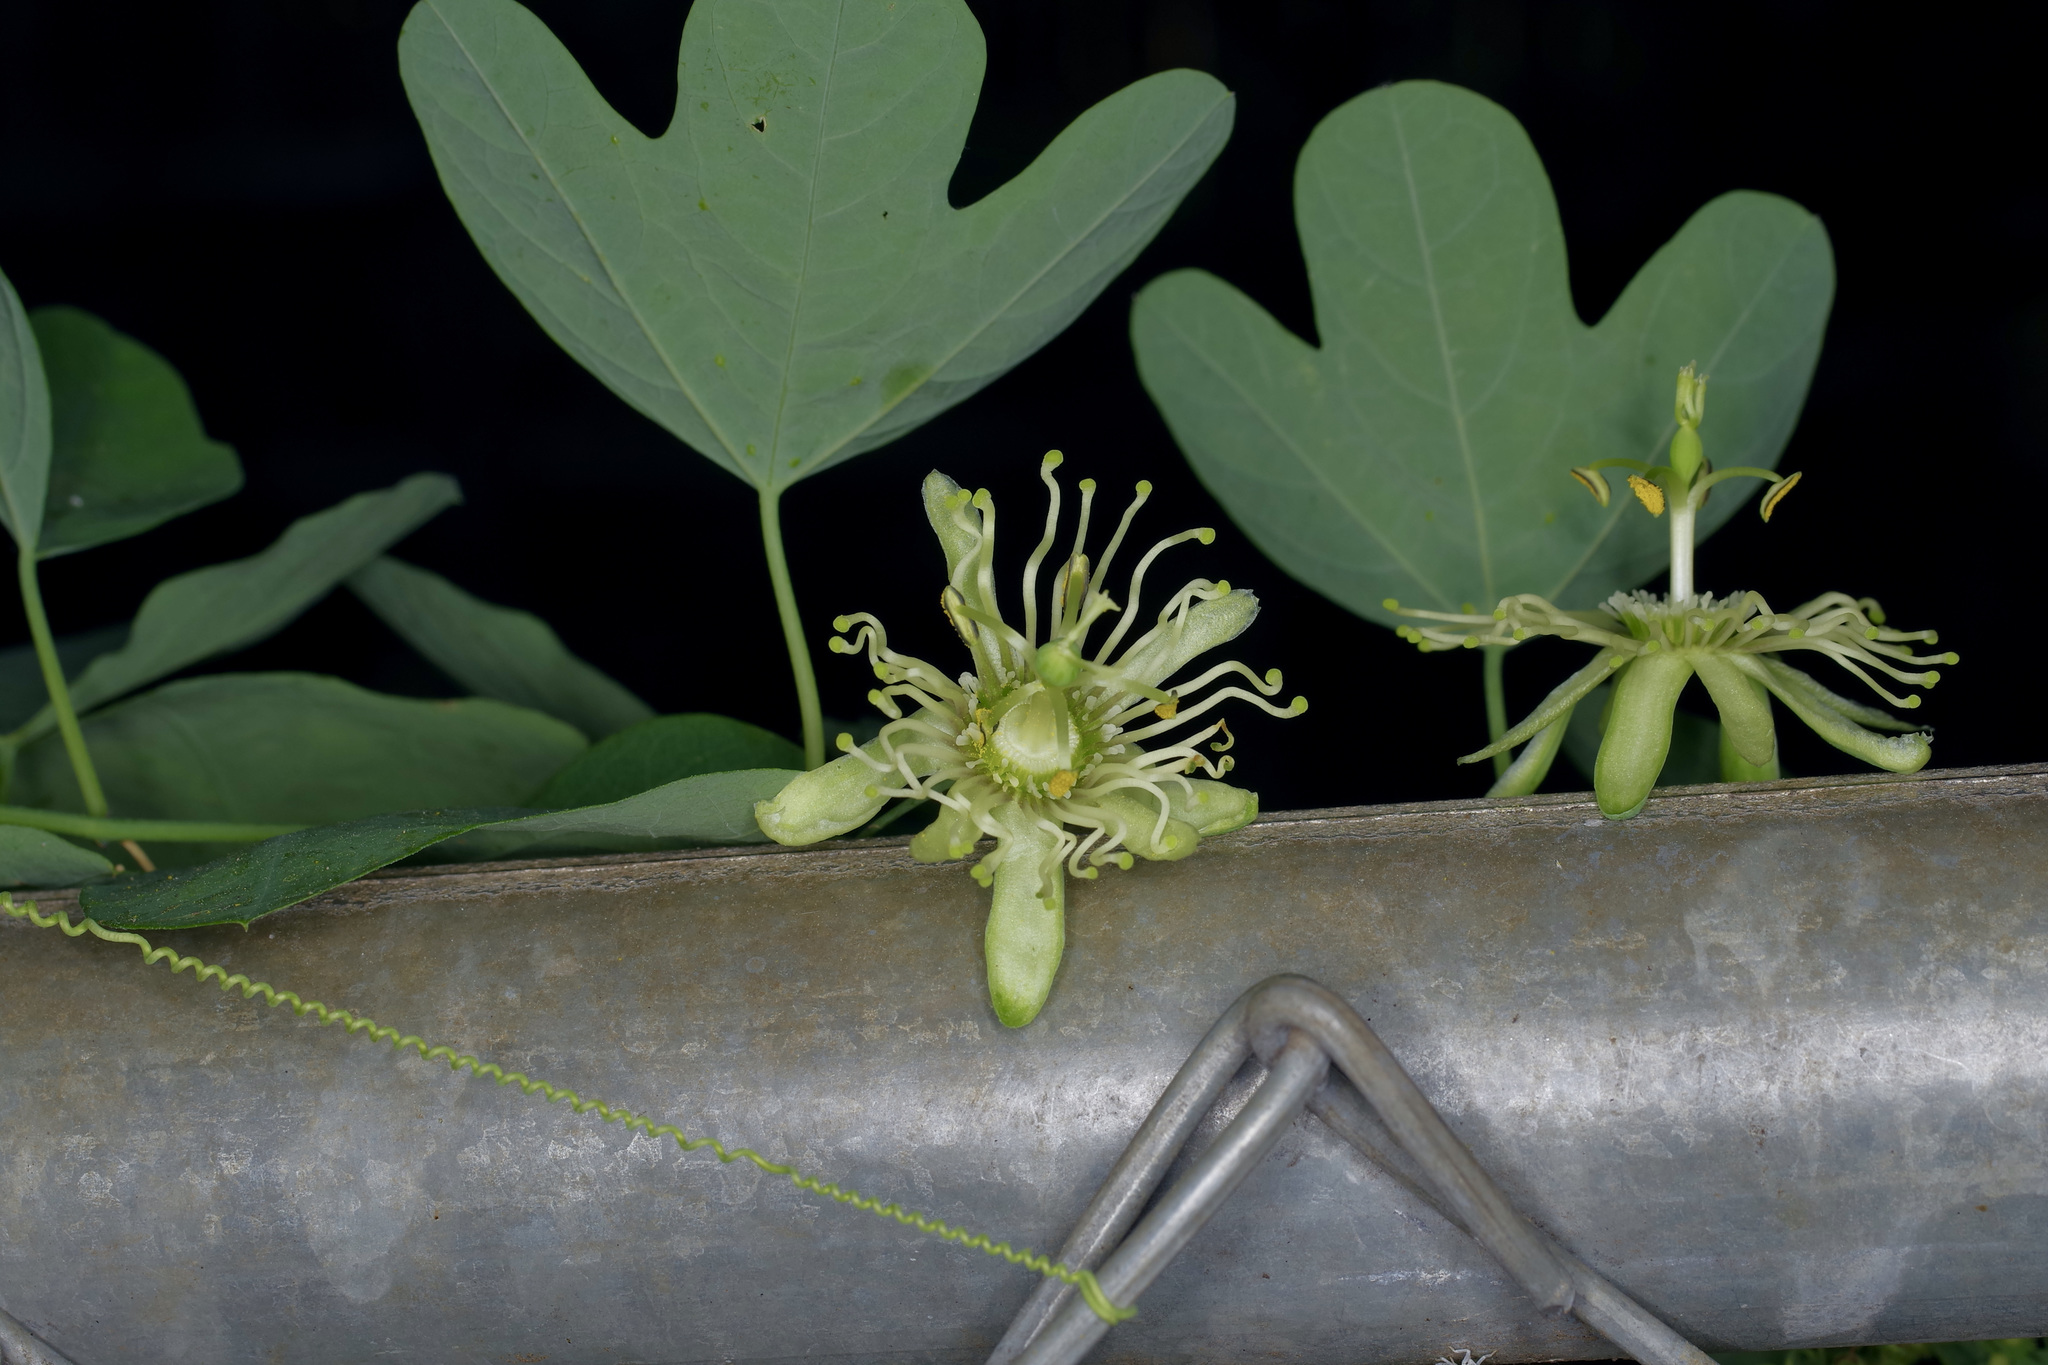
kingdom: Plantae
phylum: Tracheophyta
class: Magnoliopsida
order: Malpighiales
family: Passifloraceae
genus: Passiflora
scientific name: Passiflora affinis
